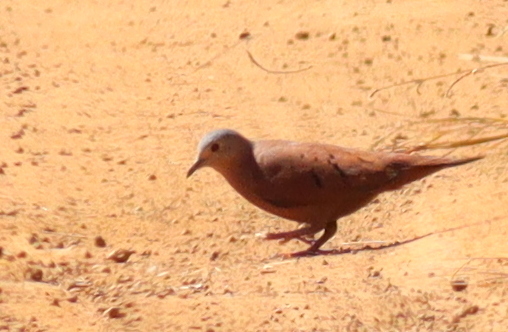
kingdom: Animalia
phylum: Chordata
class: Aves
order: Columbiformes
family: Columbidae
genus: Columbina
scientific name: Columbina talpacoti
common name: Ruddy ground dove
